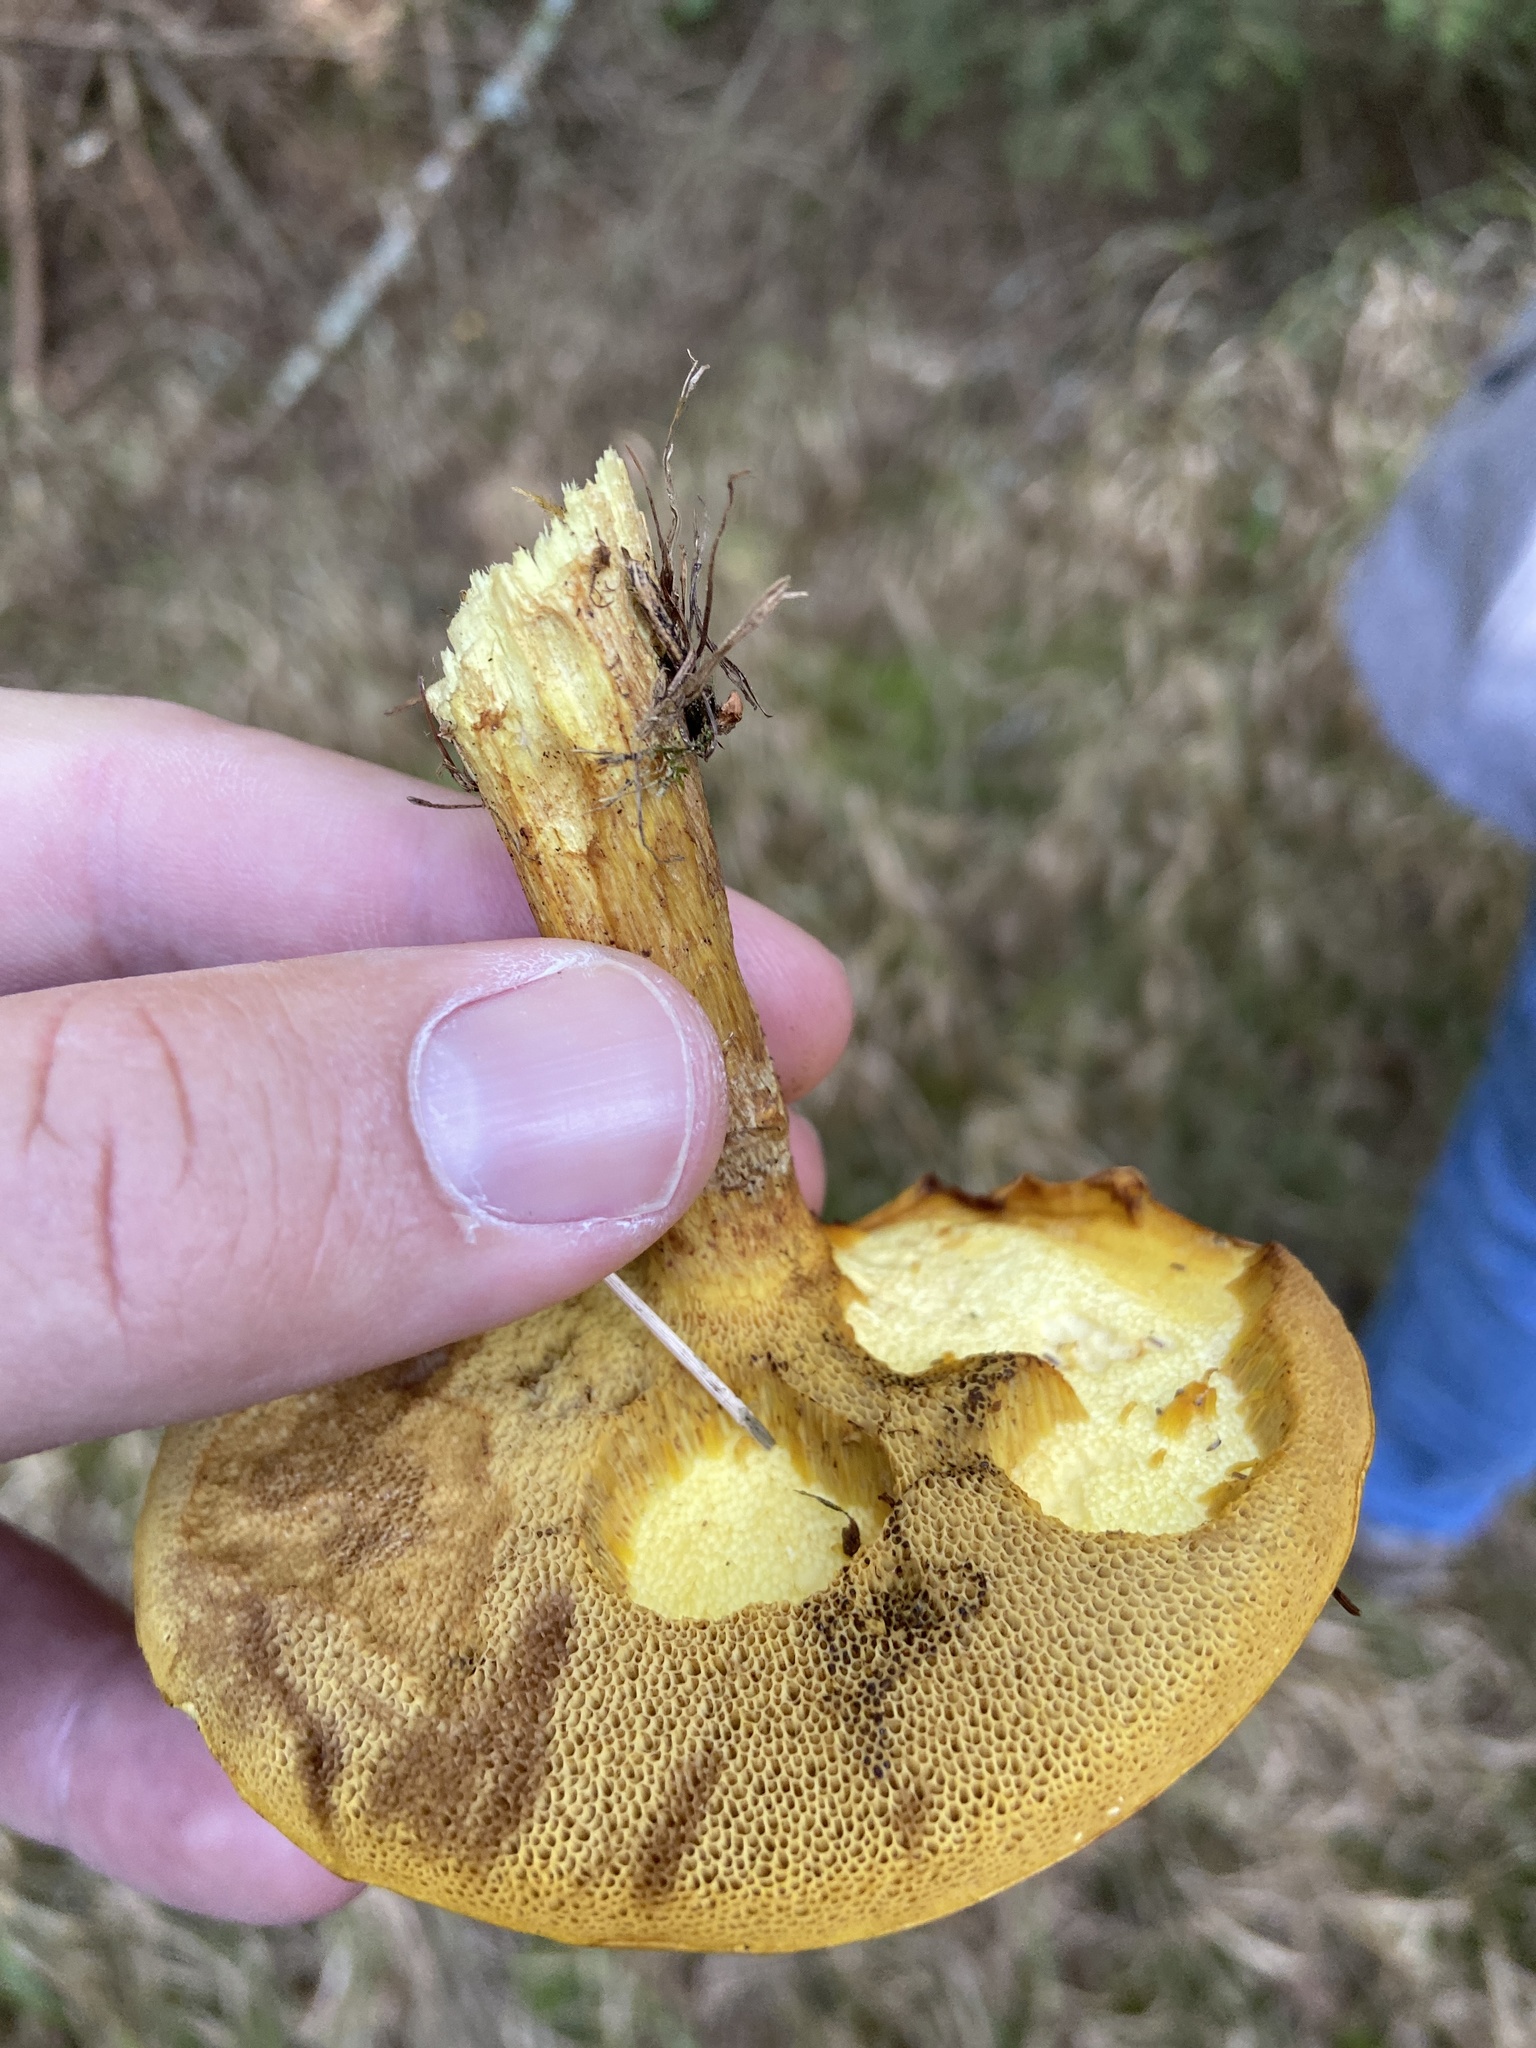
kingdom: Fungi
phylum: Basidiomycota
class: Agaricomycetes
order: Boletales
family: Suillaceae
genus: Suillus
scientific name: Suillus grevillei
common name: Larch bolete
